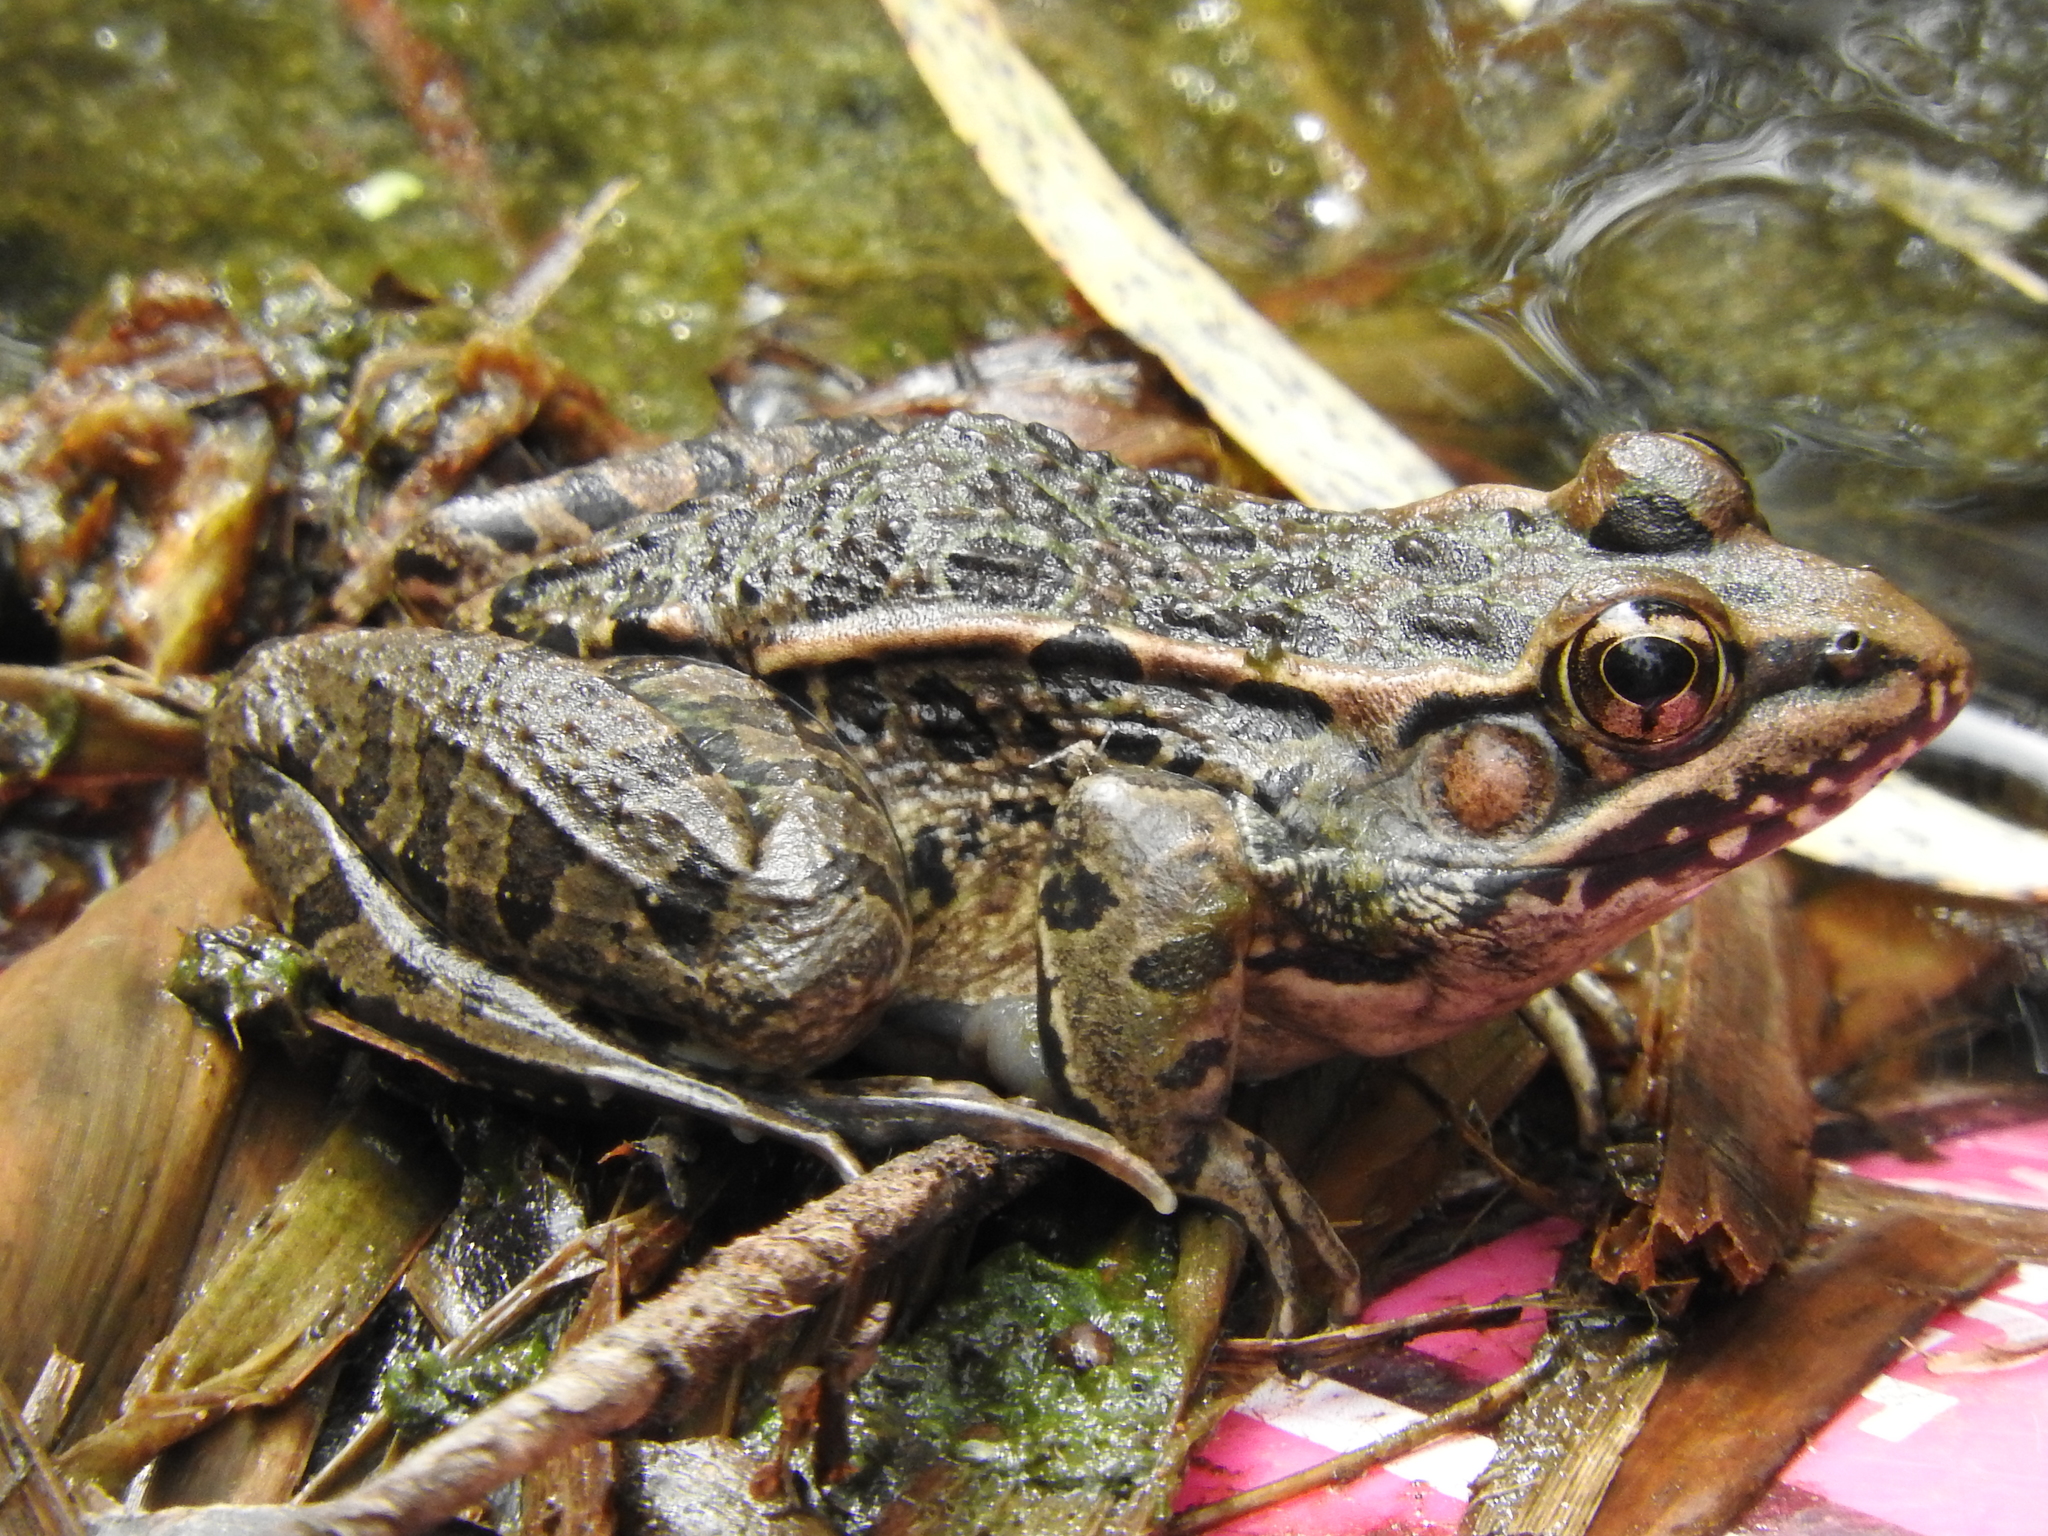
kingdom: Animalia
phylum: Chordata
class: Amphibia
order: Anura
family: Ranidae
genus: Lithobates
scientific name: Lithobates neovolcanicus
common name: Transverse volcanic leopard frog
